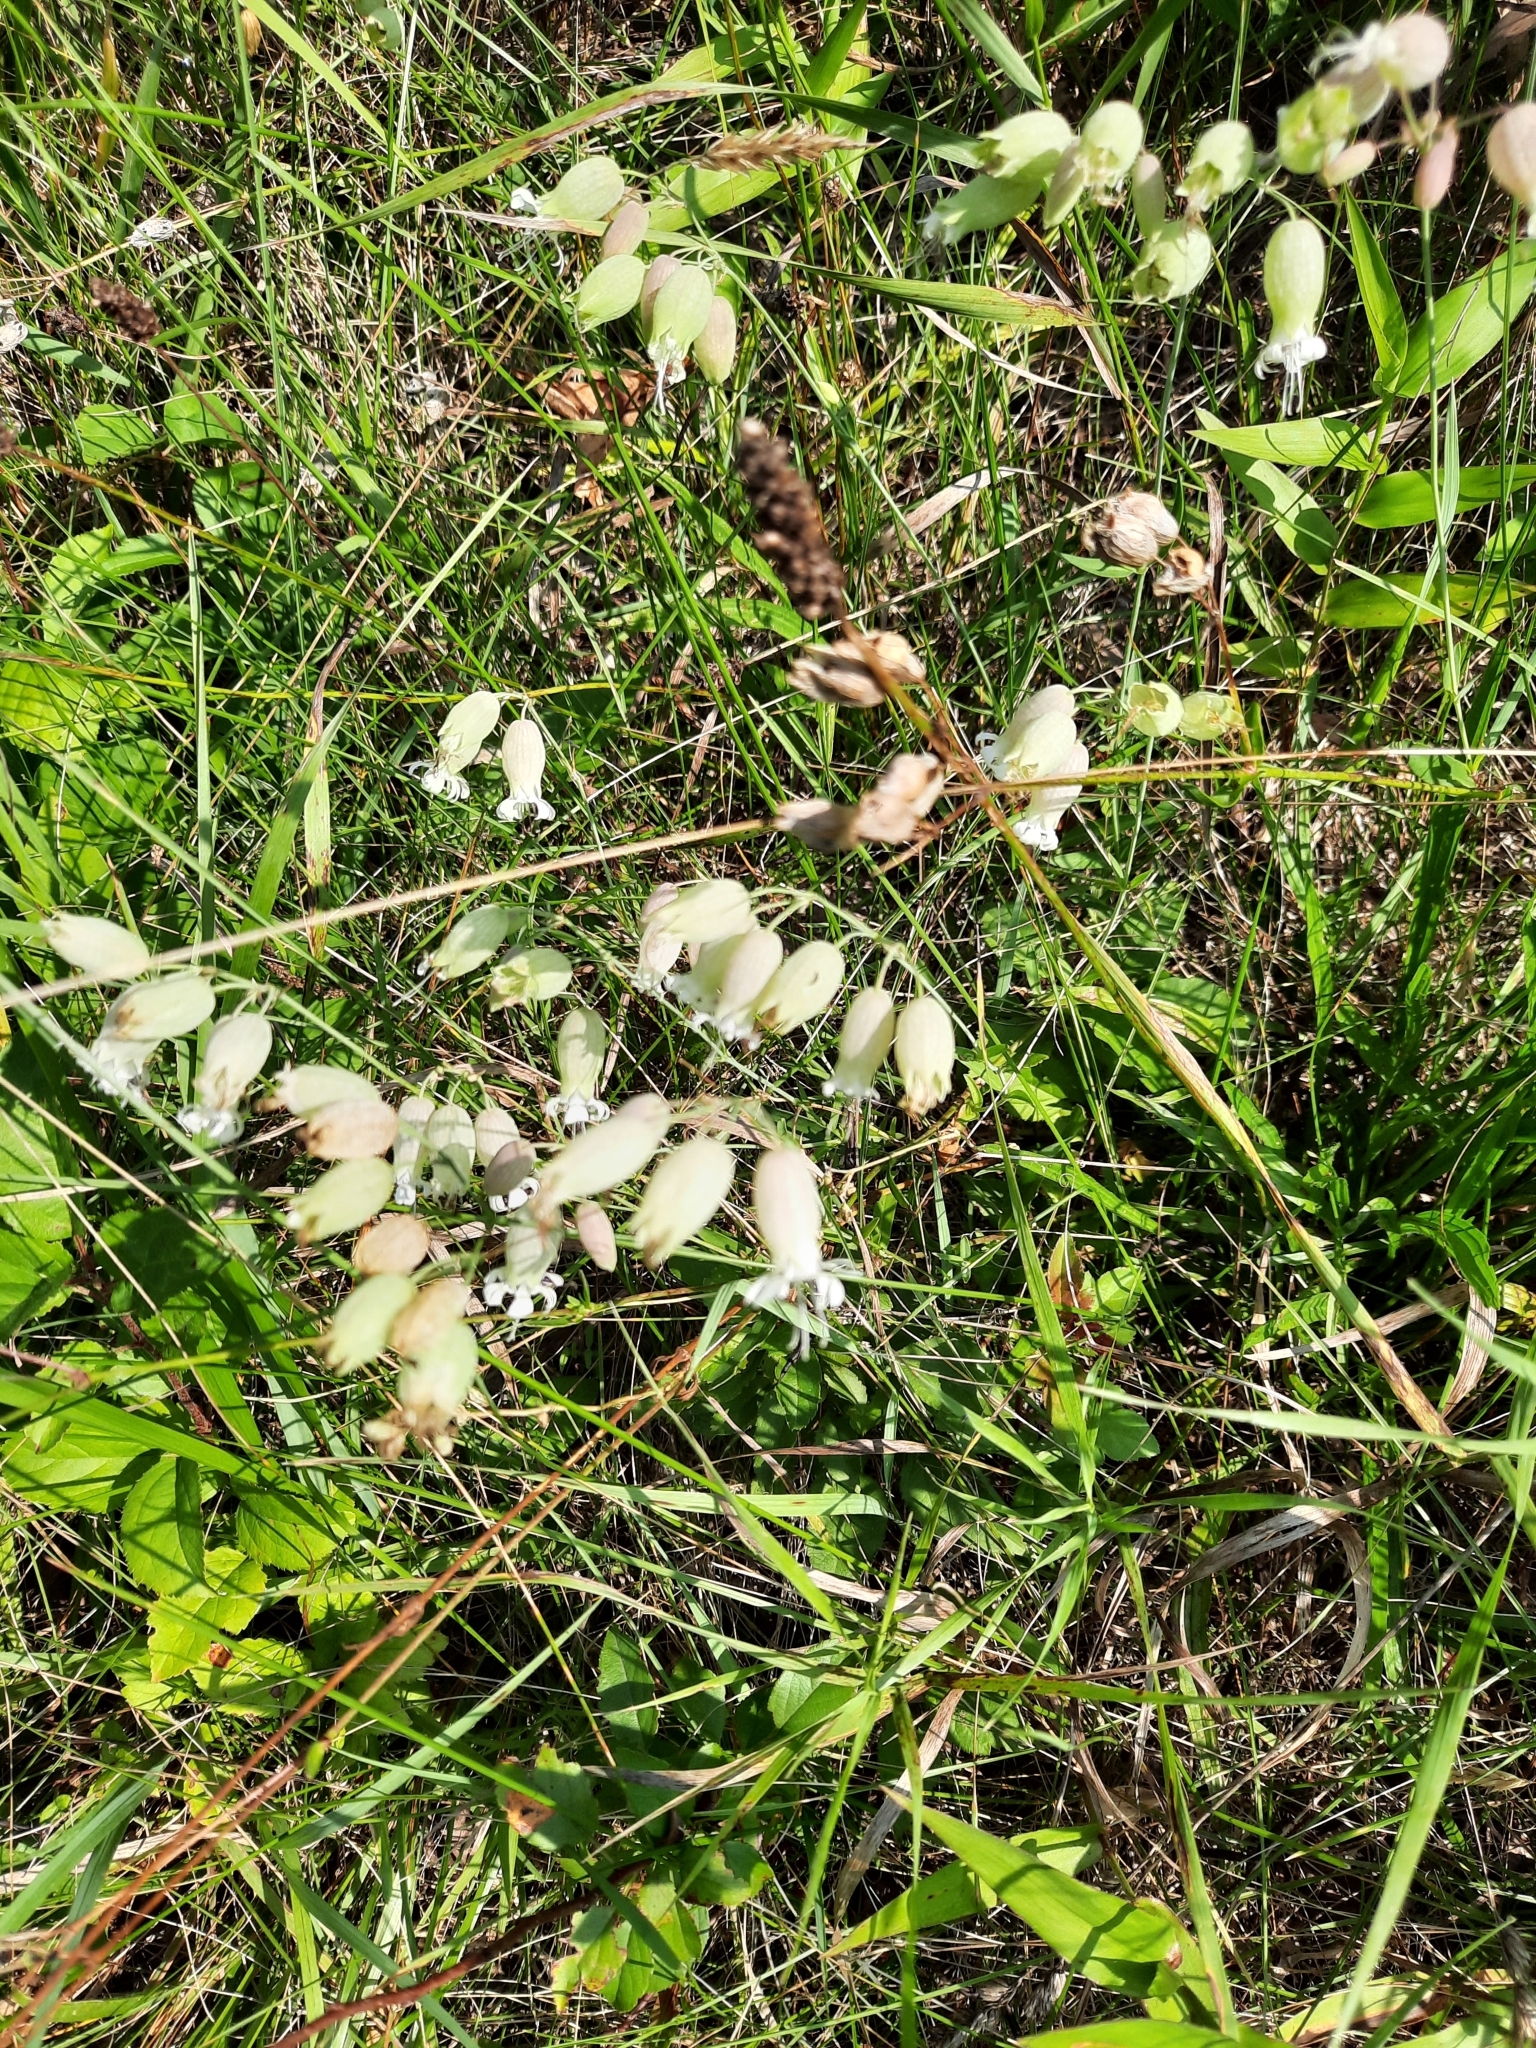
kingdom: Plantae
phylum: Tracheophyta
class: Magnoliopsida
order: Caryophyllales
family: Caryophyllaceae
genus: Silene
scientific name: Silene vulgaris
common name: Bladder campion
